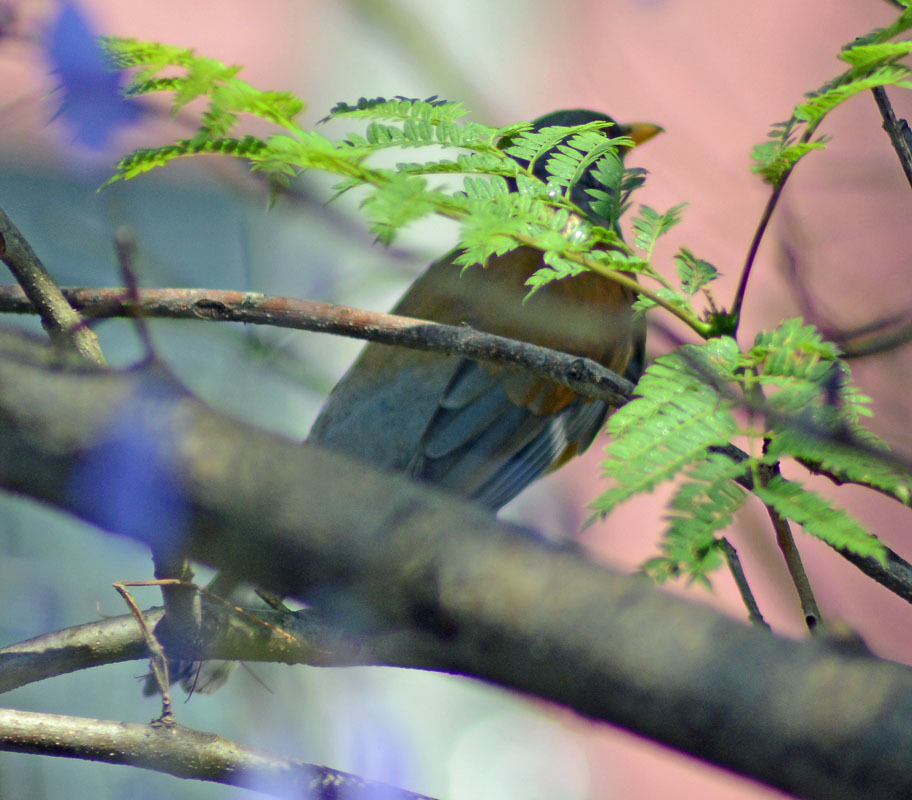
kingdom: Animalia
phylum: Chordata
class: Aves
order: Passeriformes
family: Turdidae
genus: Turdus
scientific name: Turdus rufopalliatus
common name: Rufous-backed robin
